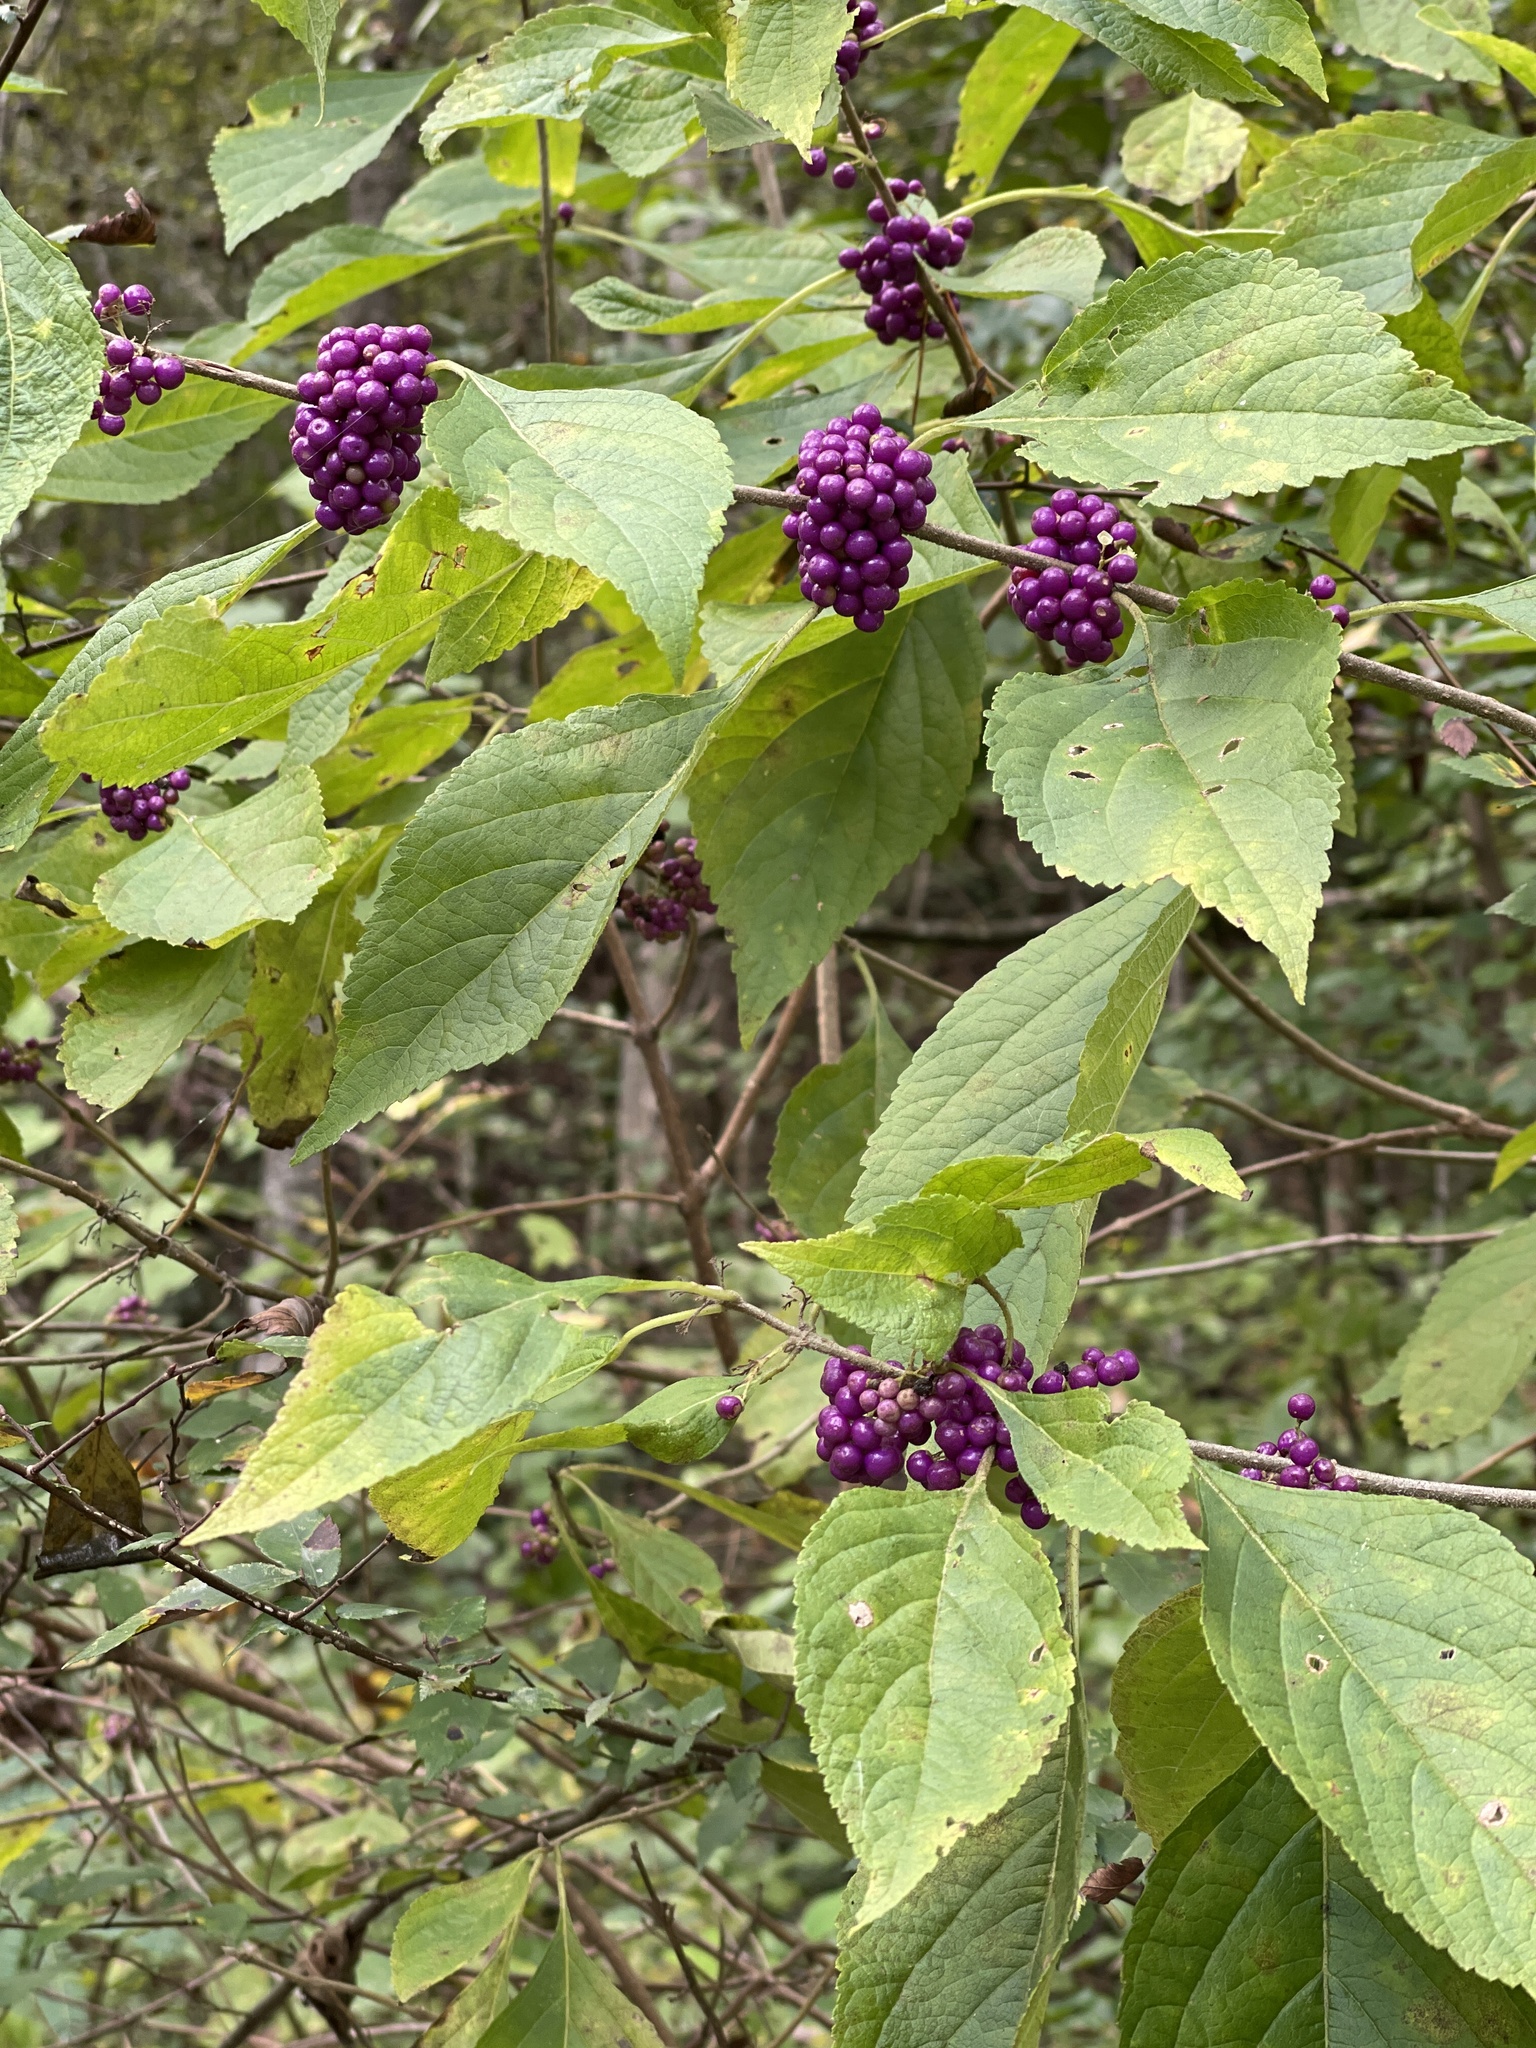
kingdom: Plantae
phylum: Tracheophyta
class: Magnoliopsida
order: Lamiales
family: Lamiaceae
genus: Callicarpa
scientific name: Callicarpa americana
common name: American beautyberry
